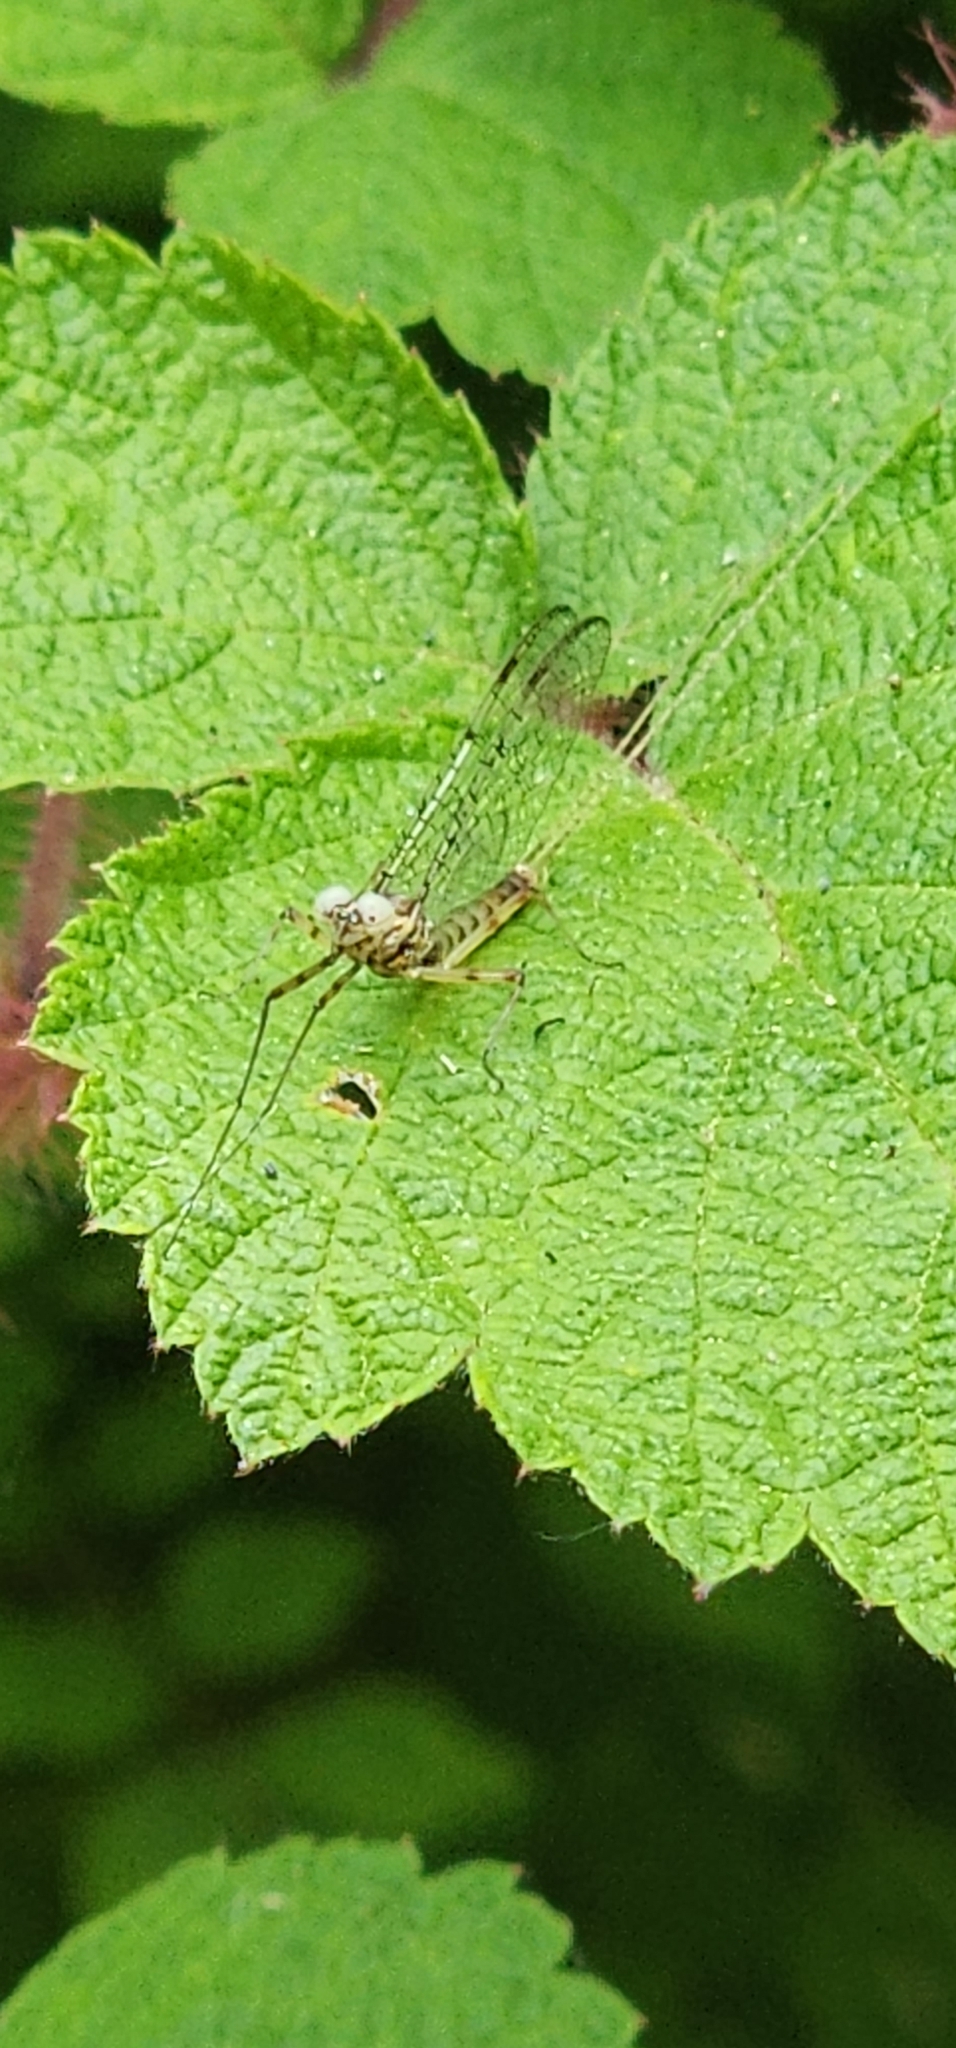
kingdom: Animalia
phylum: Arthropoda
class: Insecta
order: Ephemeroptera
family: Heptageniidae
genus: Stenonema
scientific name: Stenonema femoratum
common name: Dark cahill
